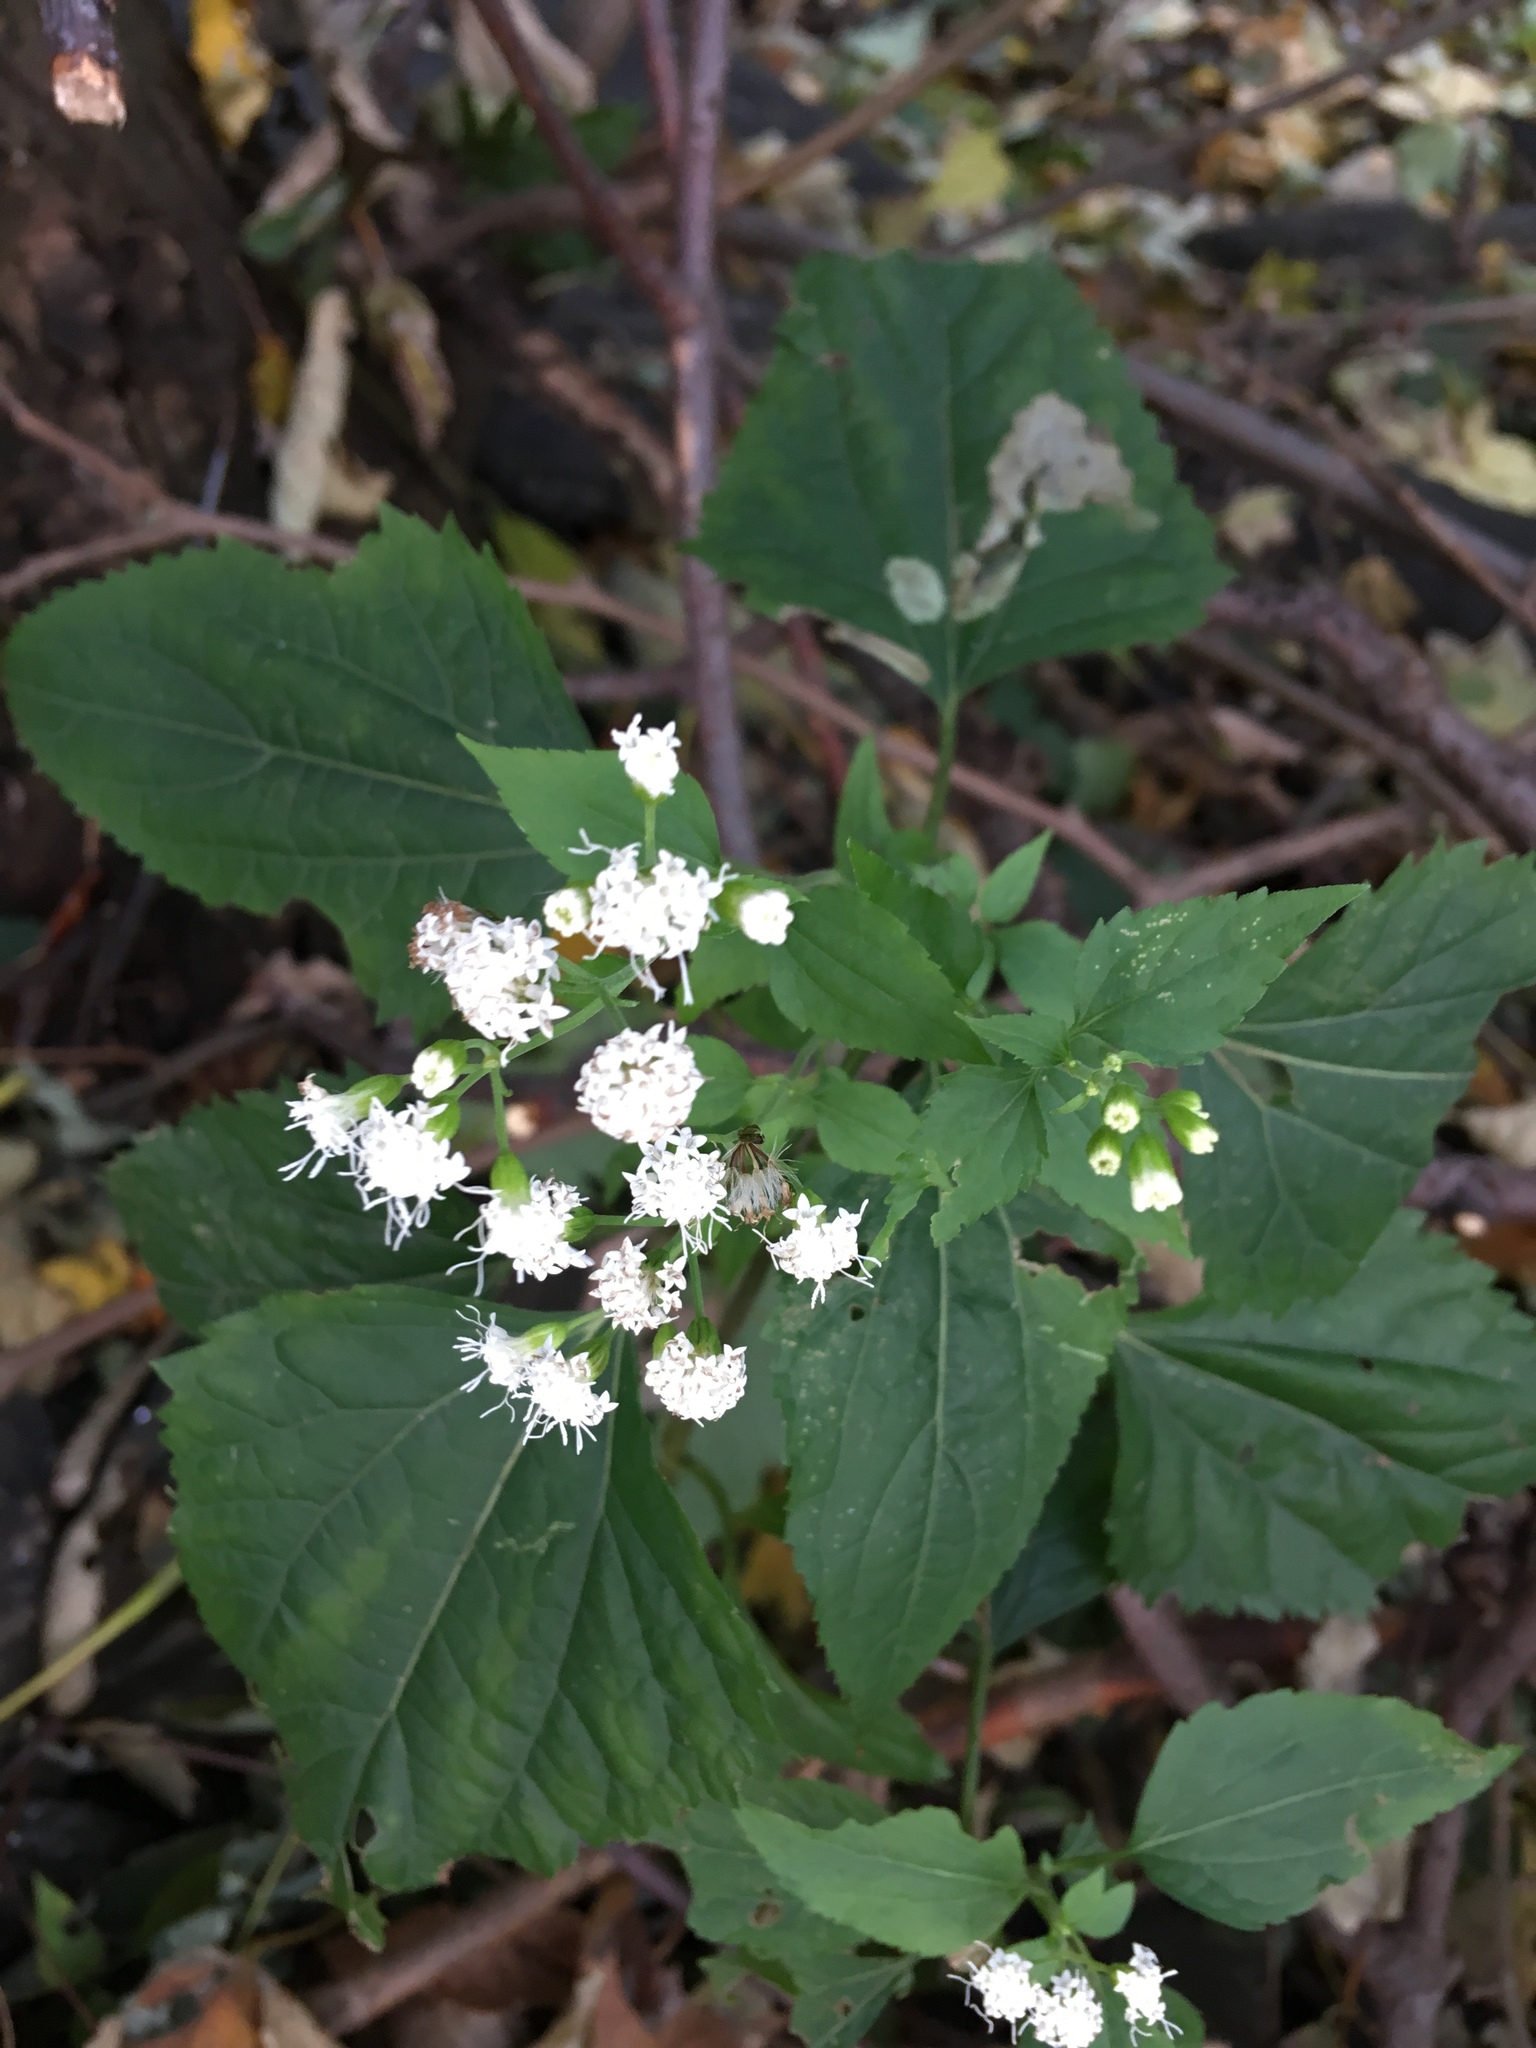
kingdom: Plantae
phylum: Tracheophyta
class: Magnoliopsida
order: Asterales
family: Asteraceae
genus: Ageratina
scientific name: Ageratina altissima
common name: White snakeroot
